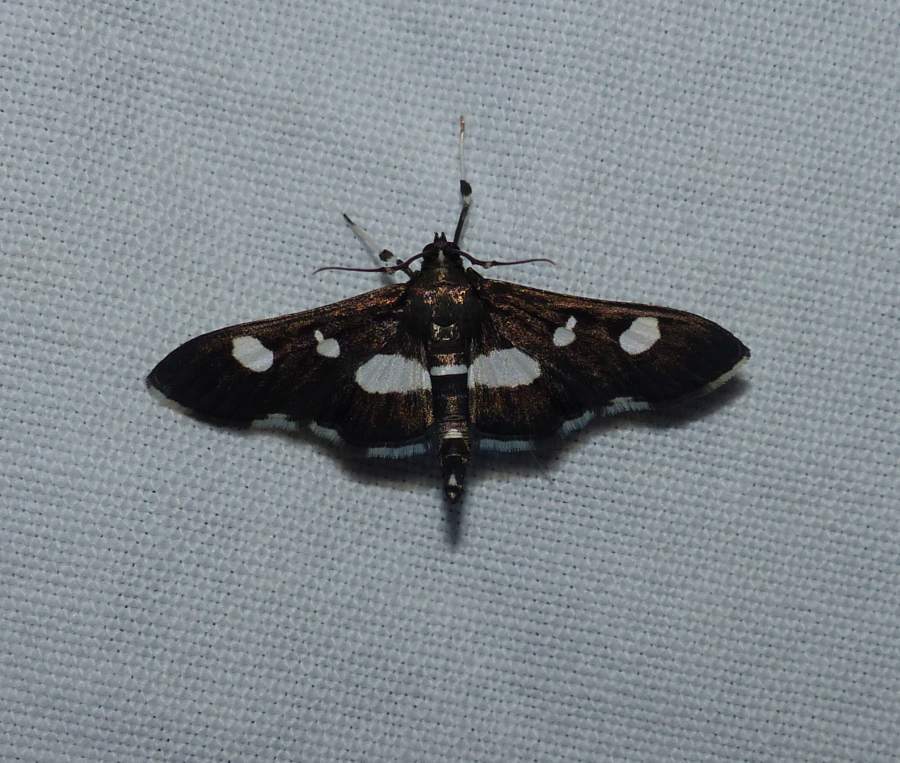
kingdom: Animalia
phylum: Arthropoda
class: Insecta
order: Lepidoptera
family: Crambidae
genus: Desmia
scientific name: Desmia
